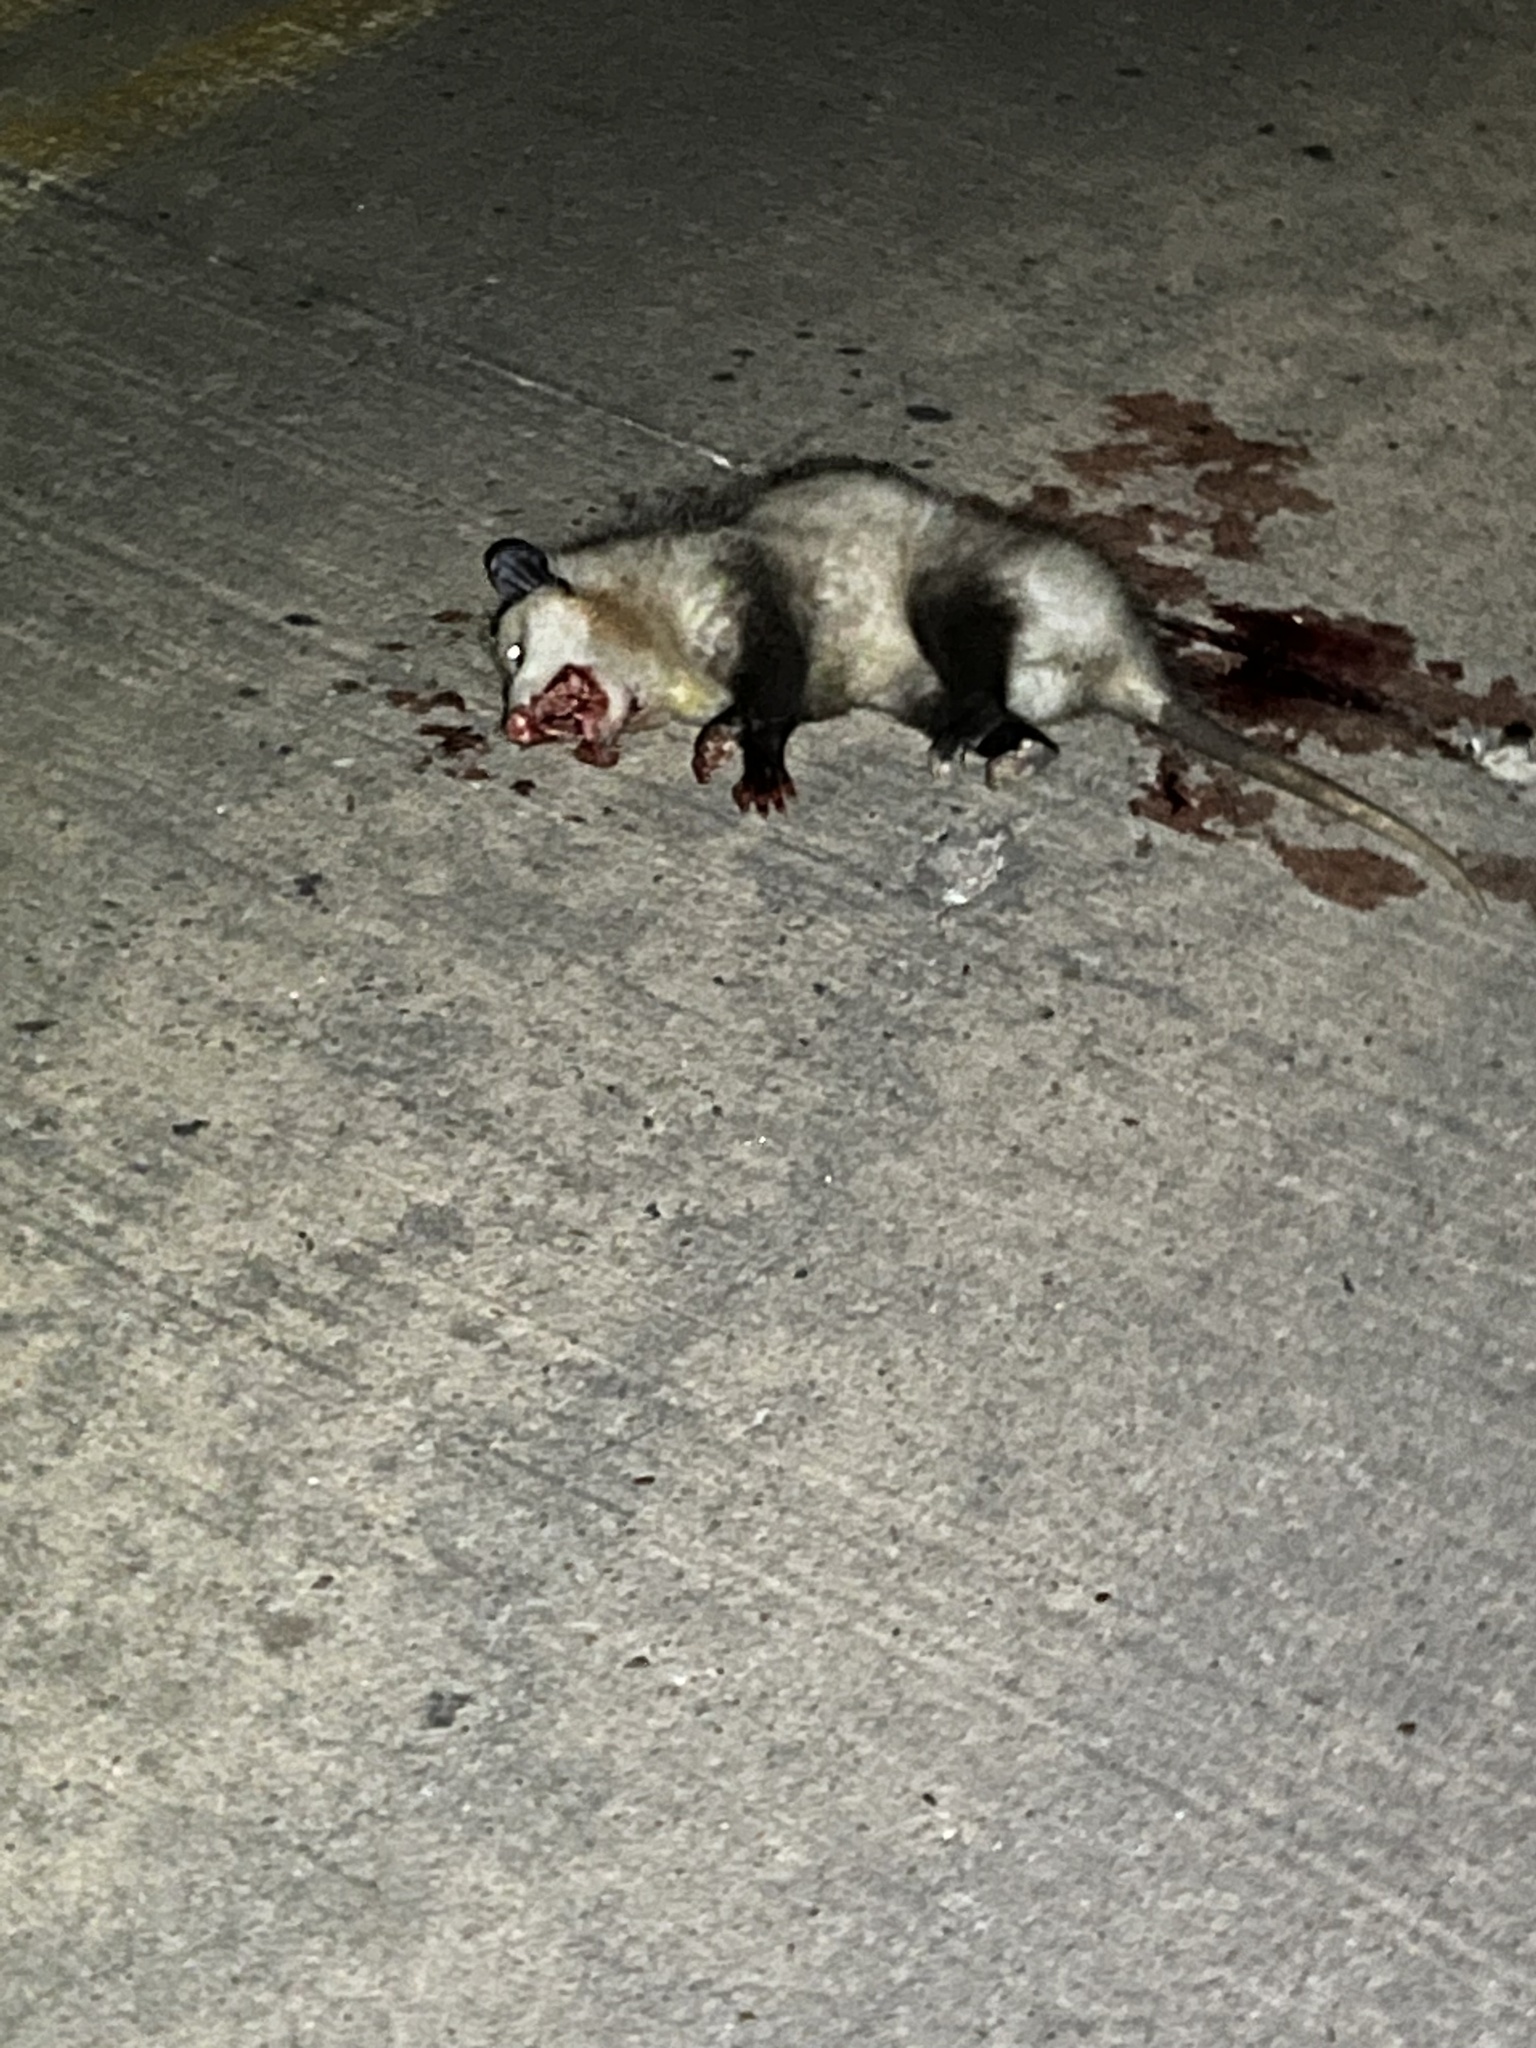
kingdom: Animalia
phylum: Chordata
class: Mammalia
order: Didelphimorphia
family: Didelphidae
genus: Didelphis
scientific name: Didelphis virginiana
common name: Virginia opossum
